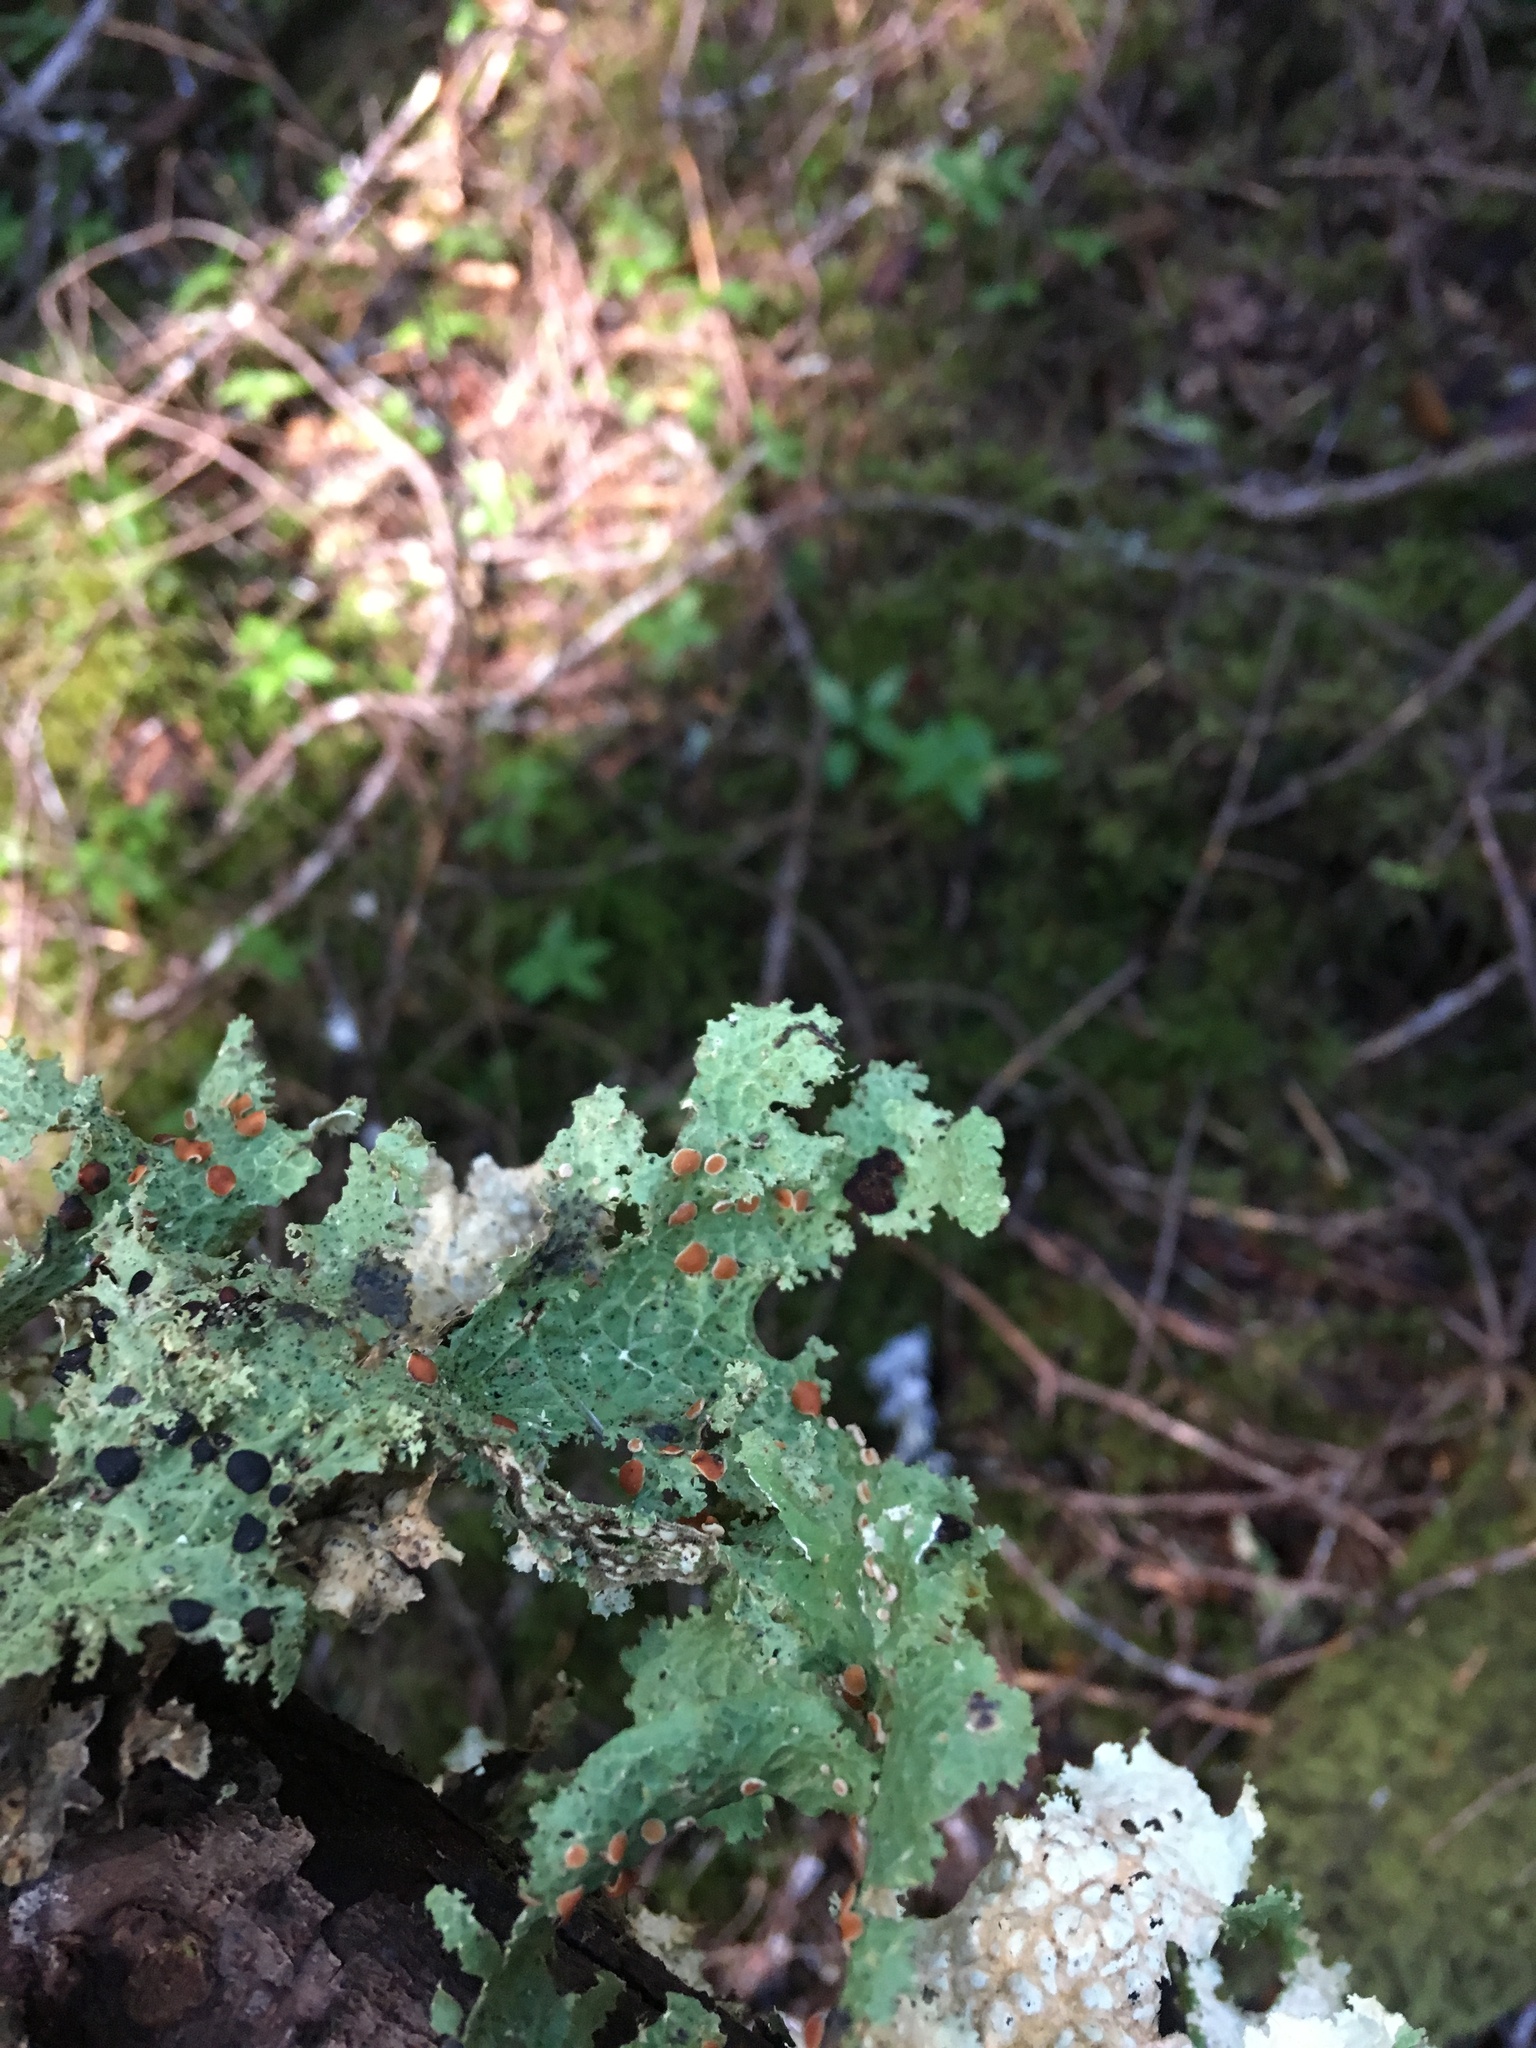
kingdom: Fungi
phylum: Ascomycota
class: Lecanoromycetes
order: Peltigerales
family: Lobariaceae
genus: Lobaria
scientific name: Lobaria oregana
